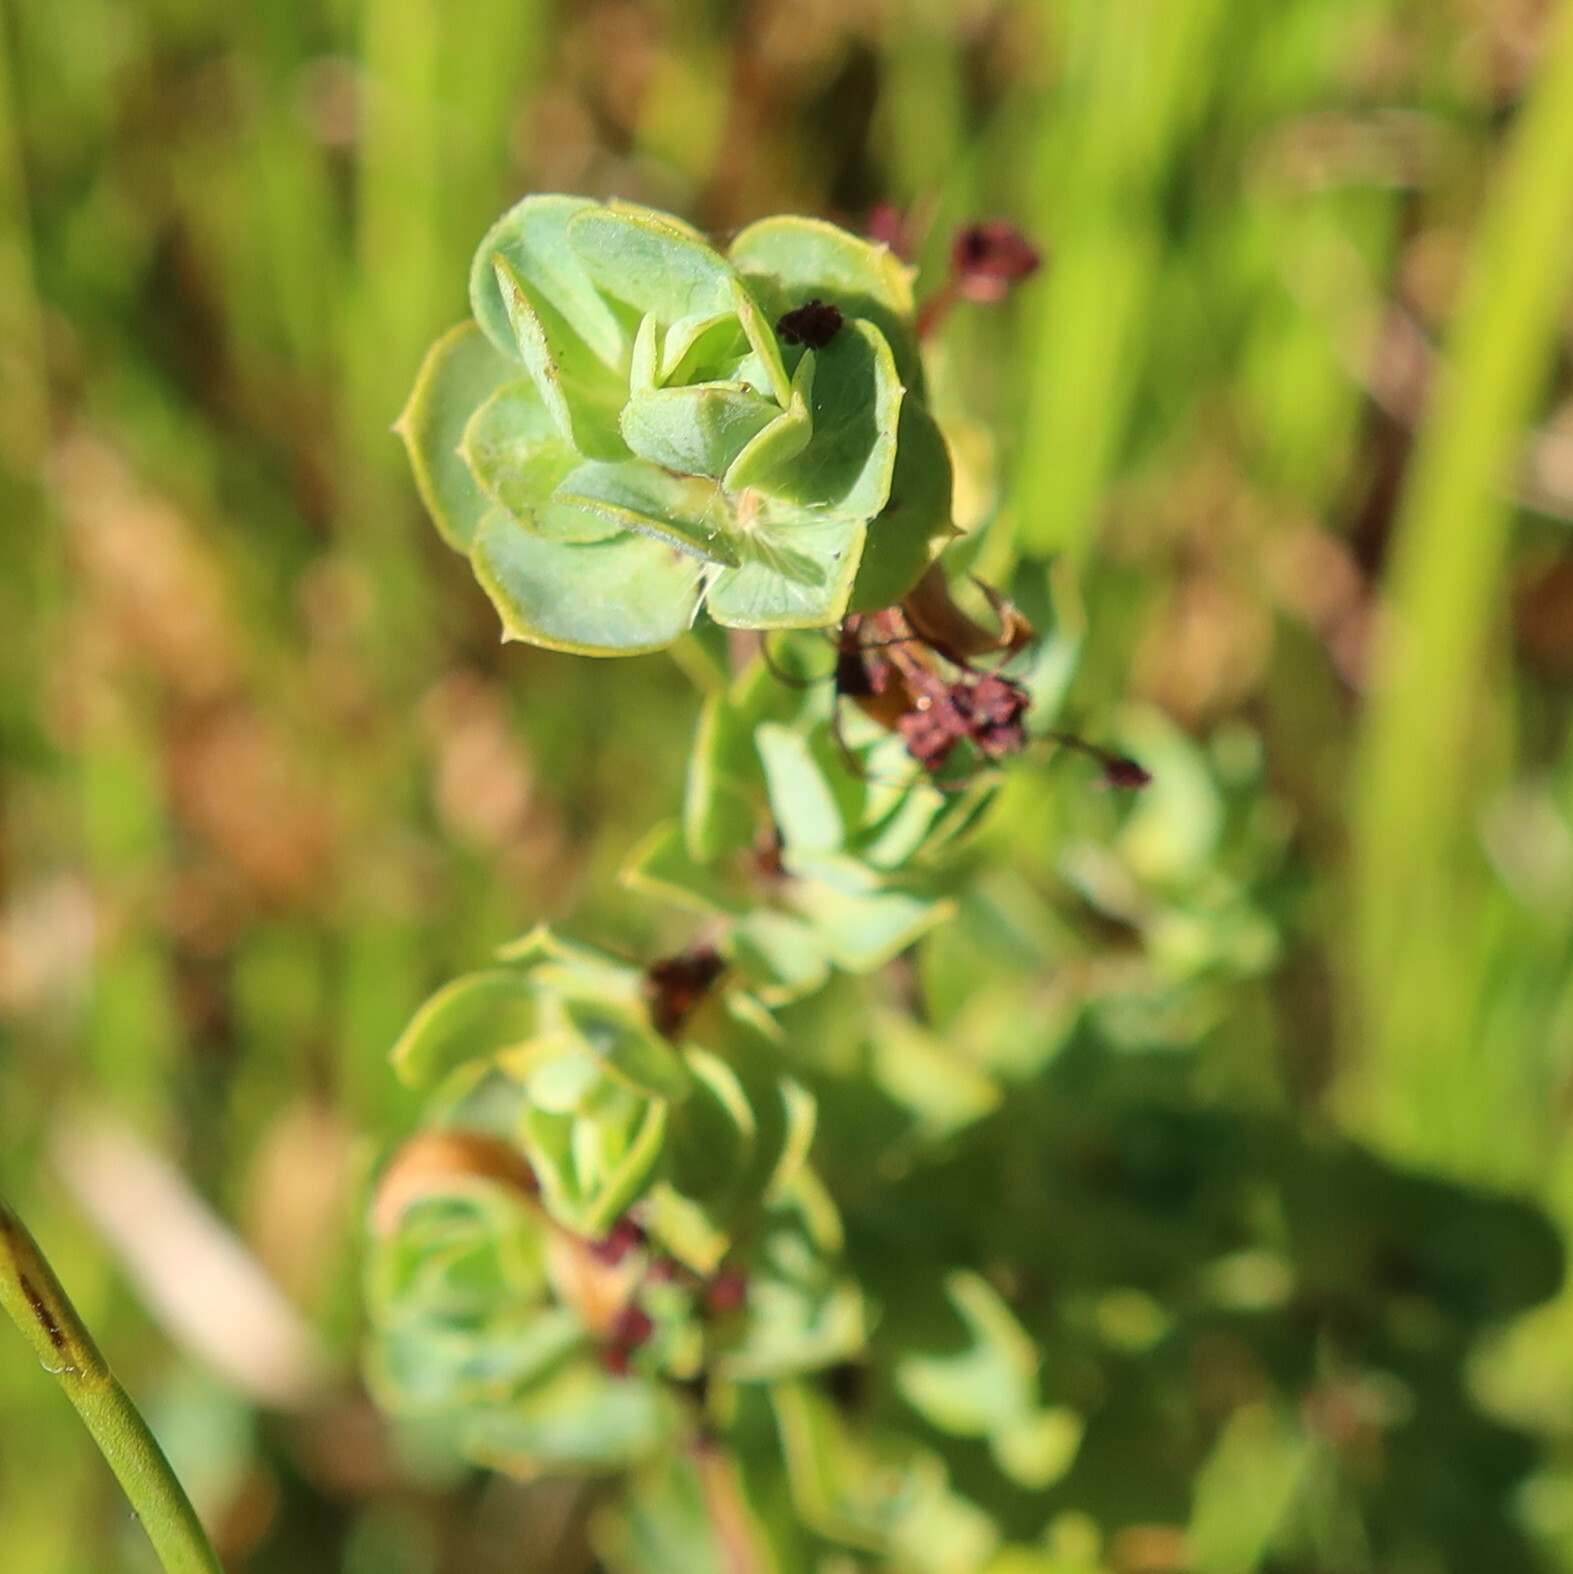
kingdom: Plantae
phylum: Tracheophyta
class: Magnoliopsida
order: Rosales
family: Rosaceae
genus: Cliffortia
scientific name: Cliffortia obcordata
